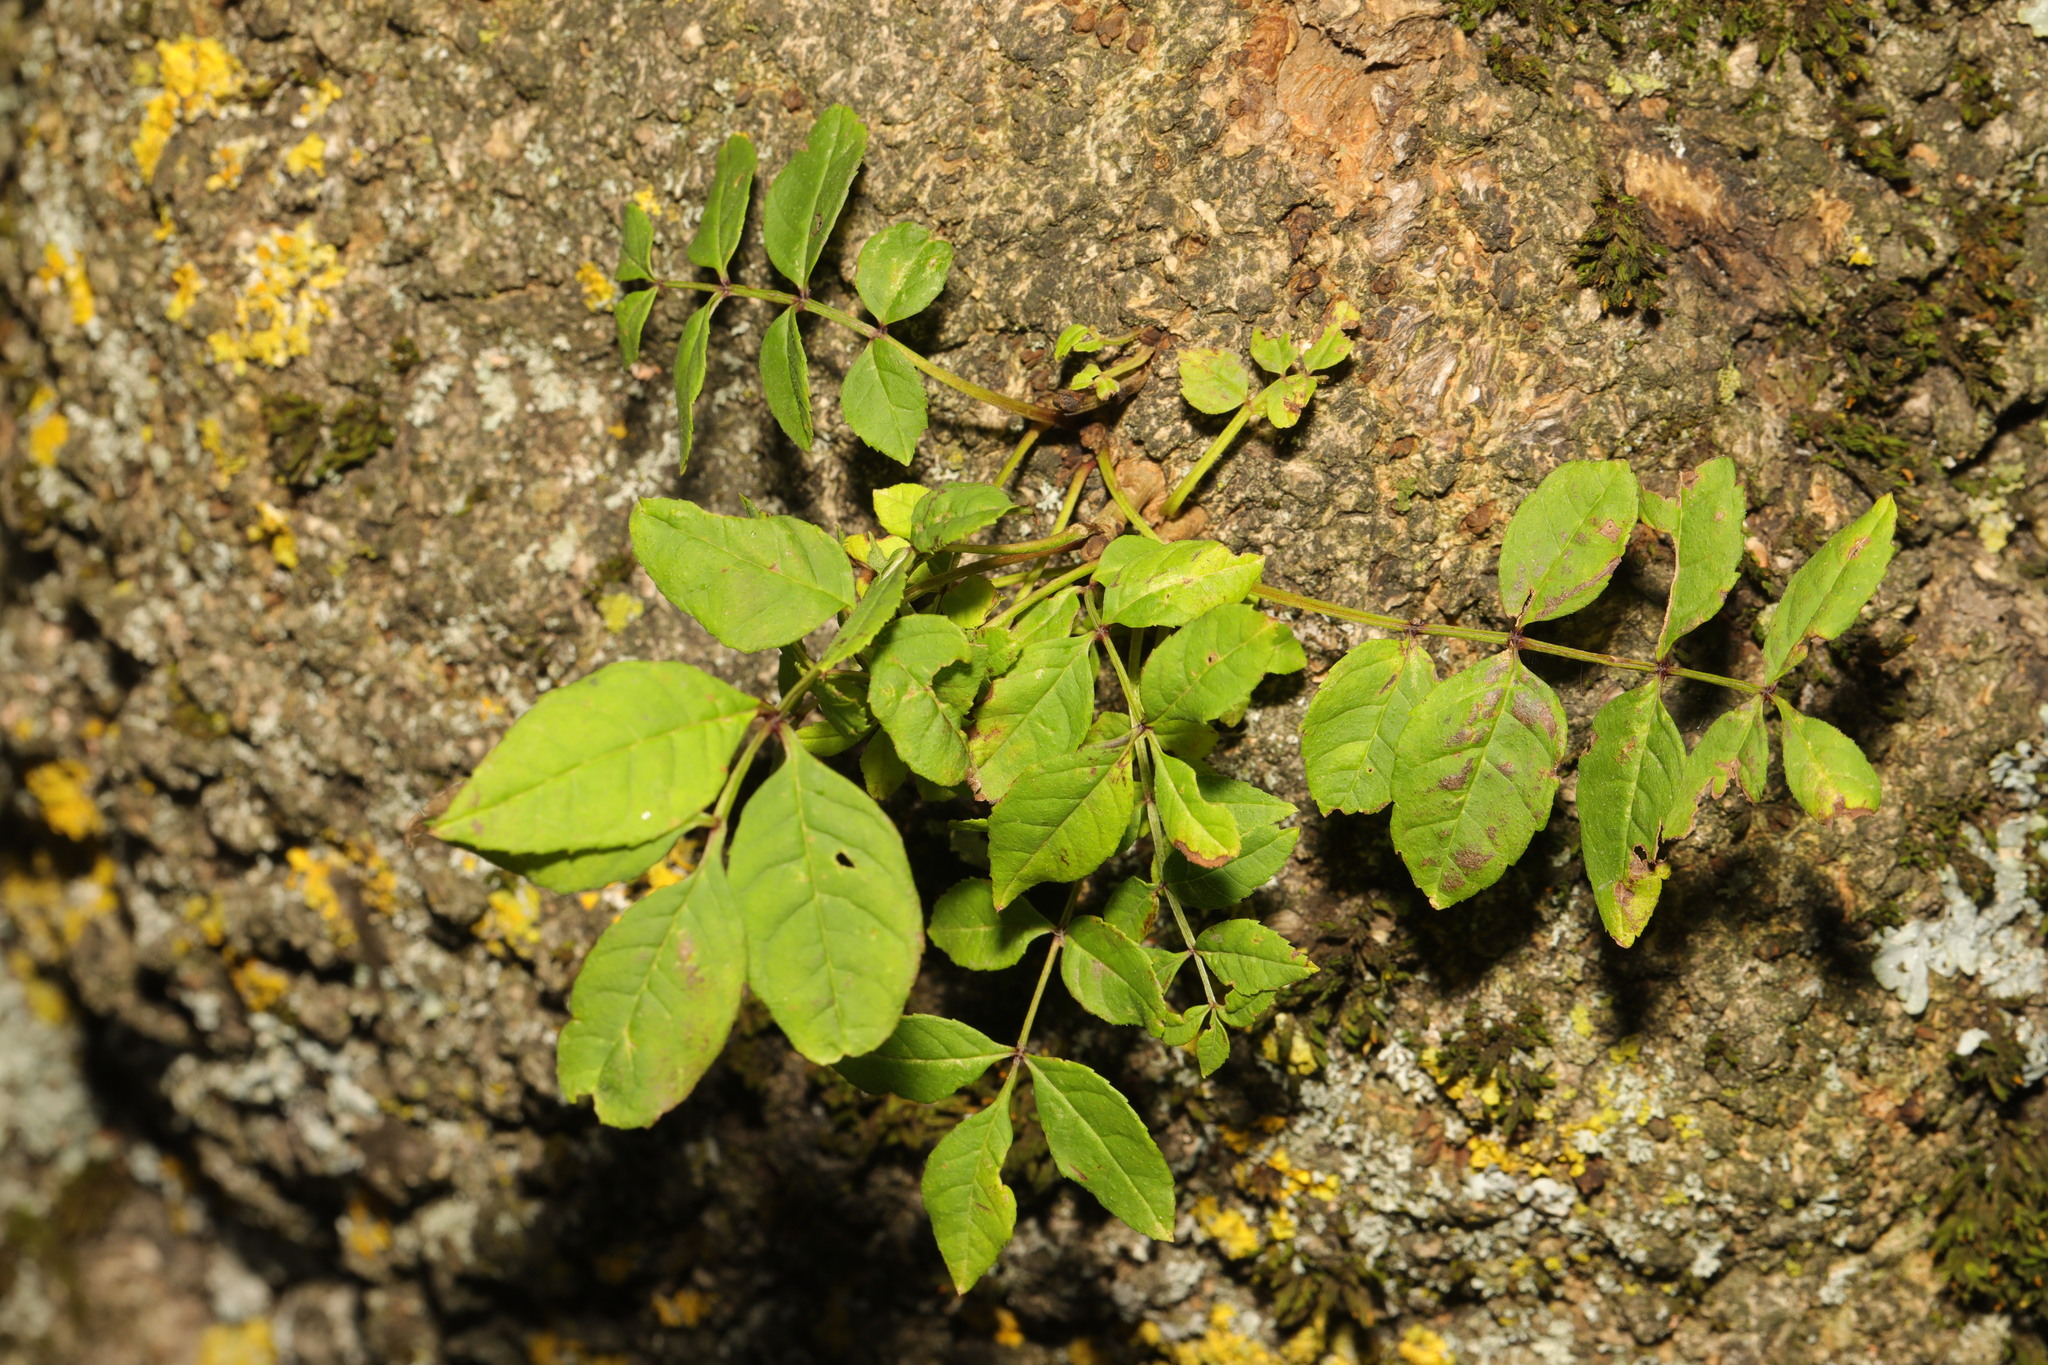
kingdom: Plantae
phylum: Tracheophyta
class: Magnoliopsida
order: Lamiales
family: Oleaceae
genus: Fraxinus
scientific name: Fraxinus excelsior
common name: European ash
